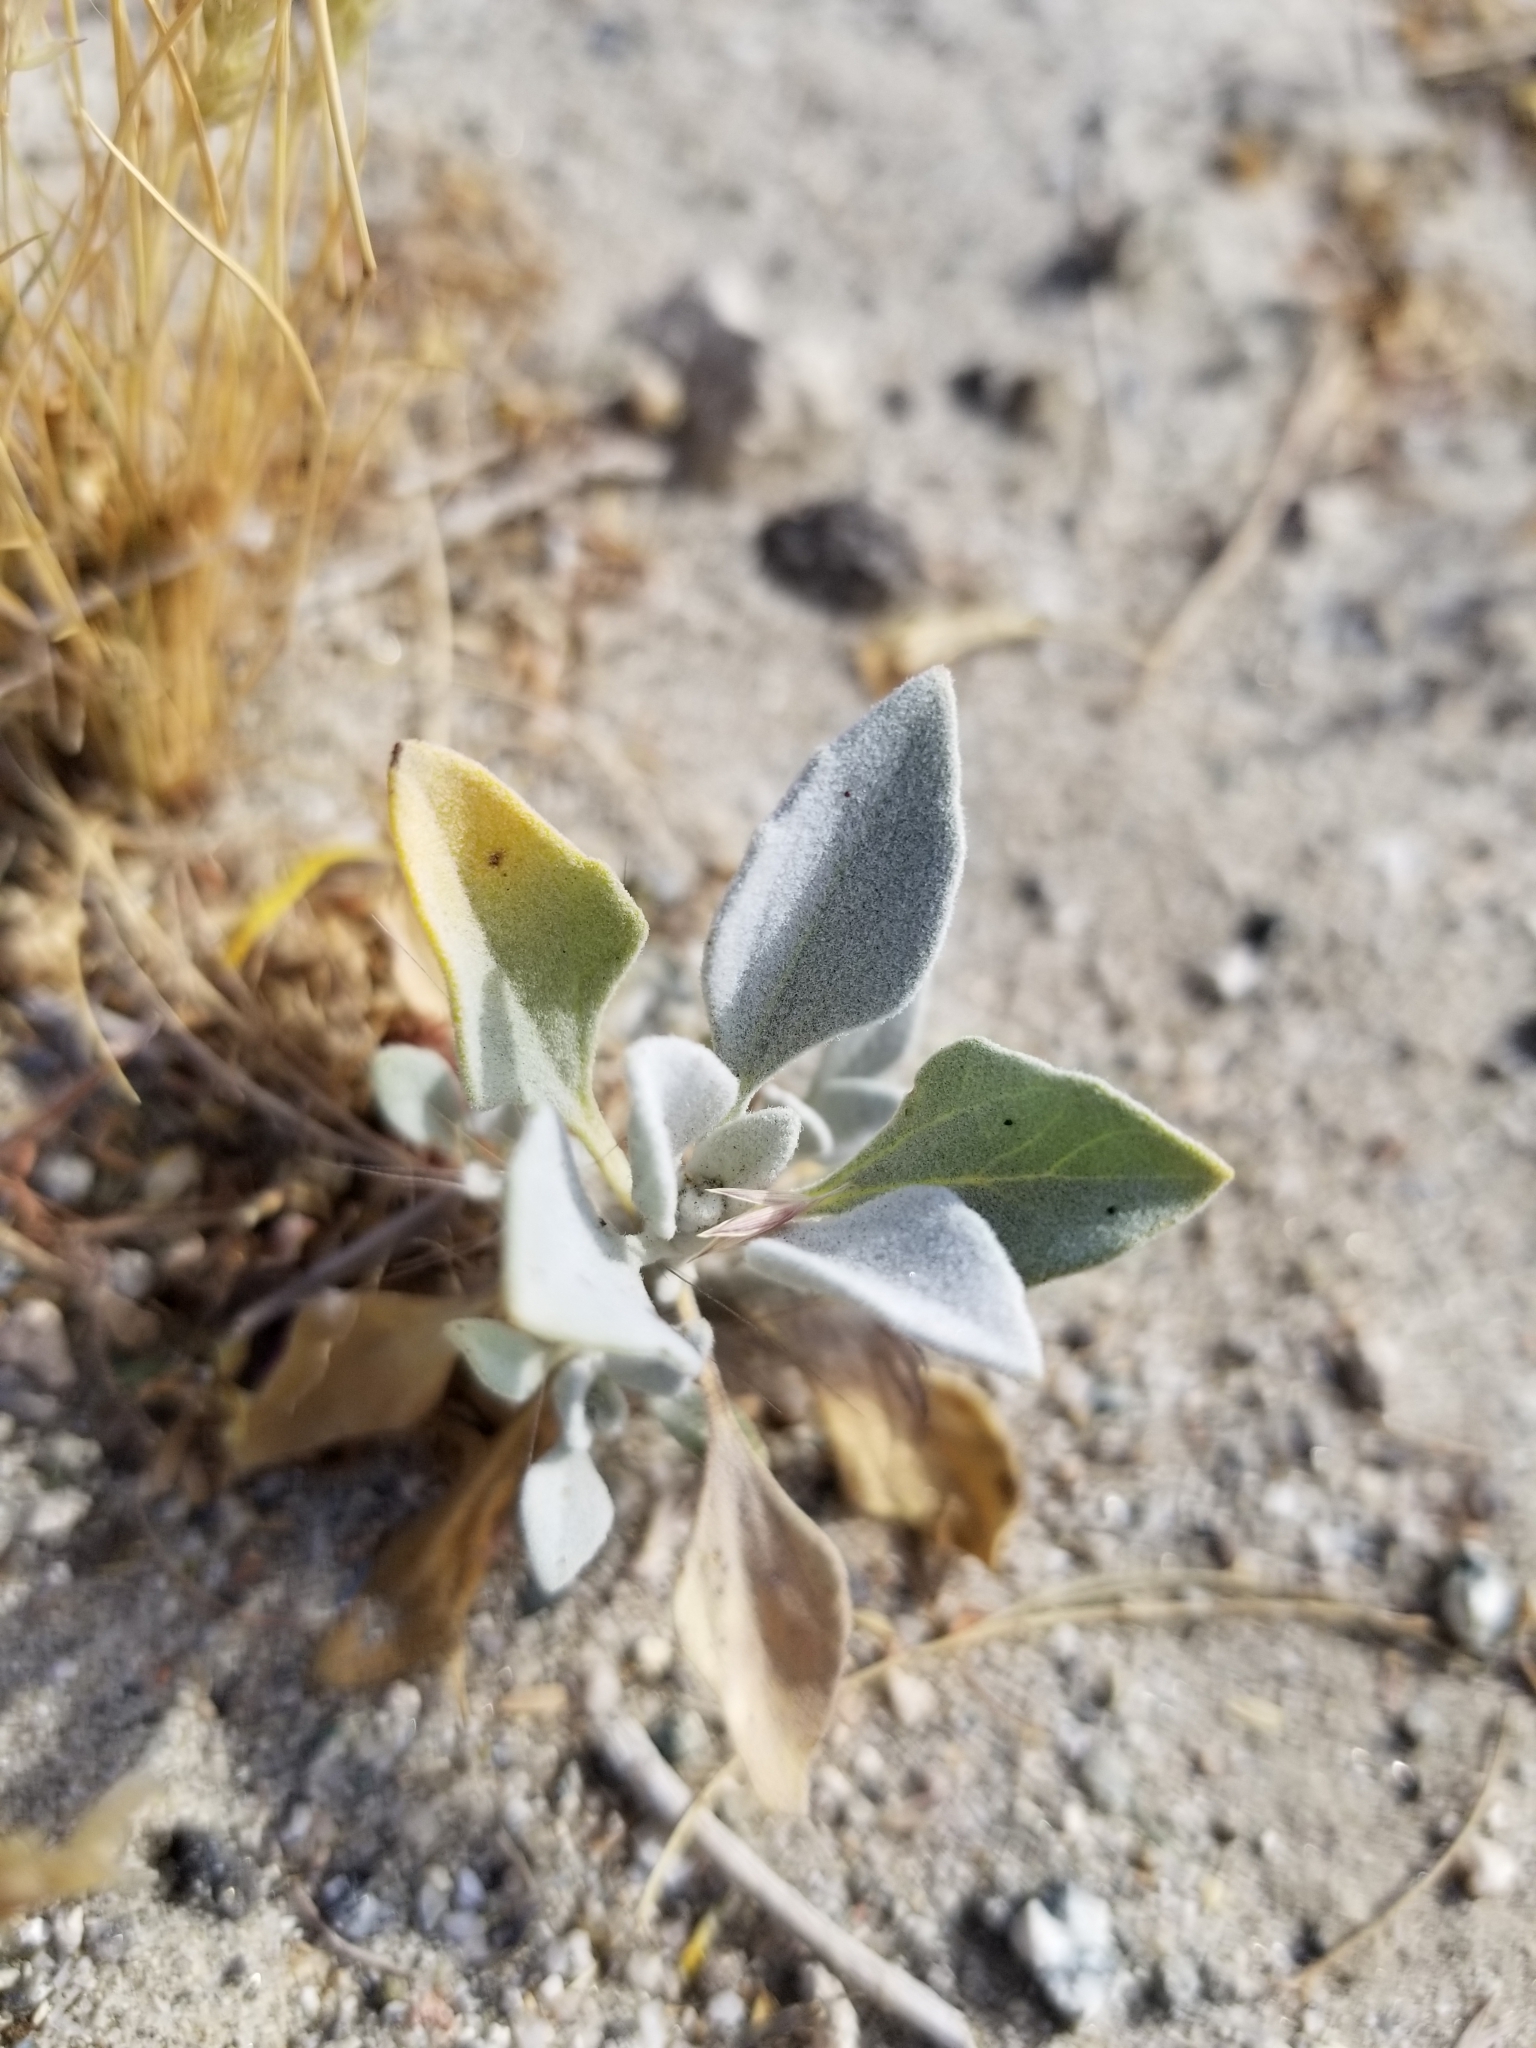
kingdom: Plantae
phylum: Tracheophyta
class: Magnoliopsida
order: Asterales
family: Asteraceae
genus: Encelia
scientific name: Encelia farinosa
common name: Brittlebush
